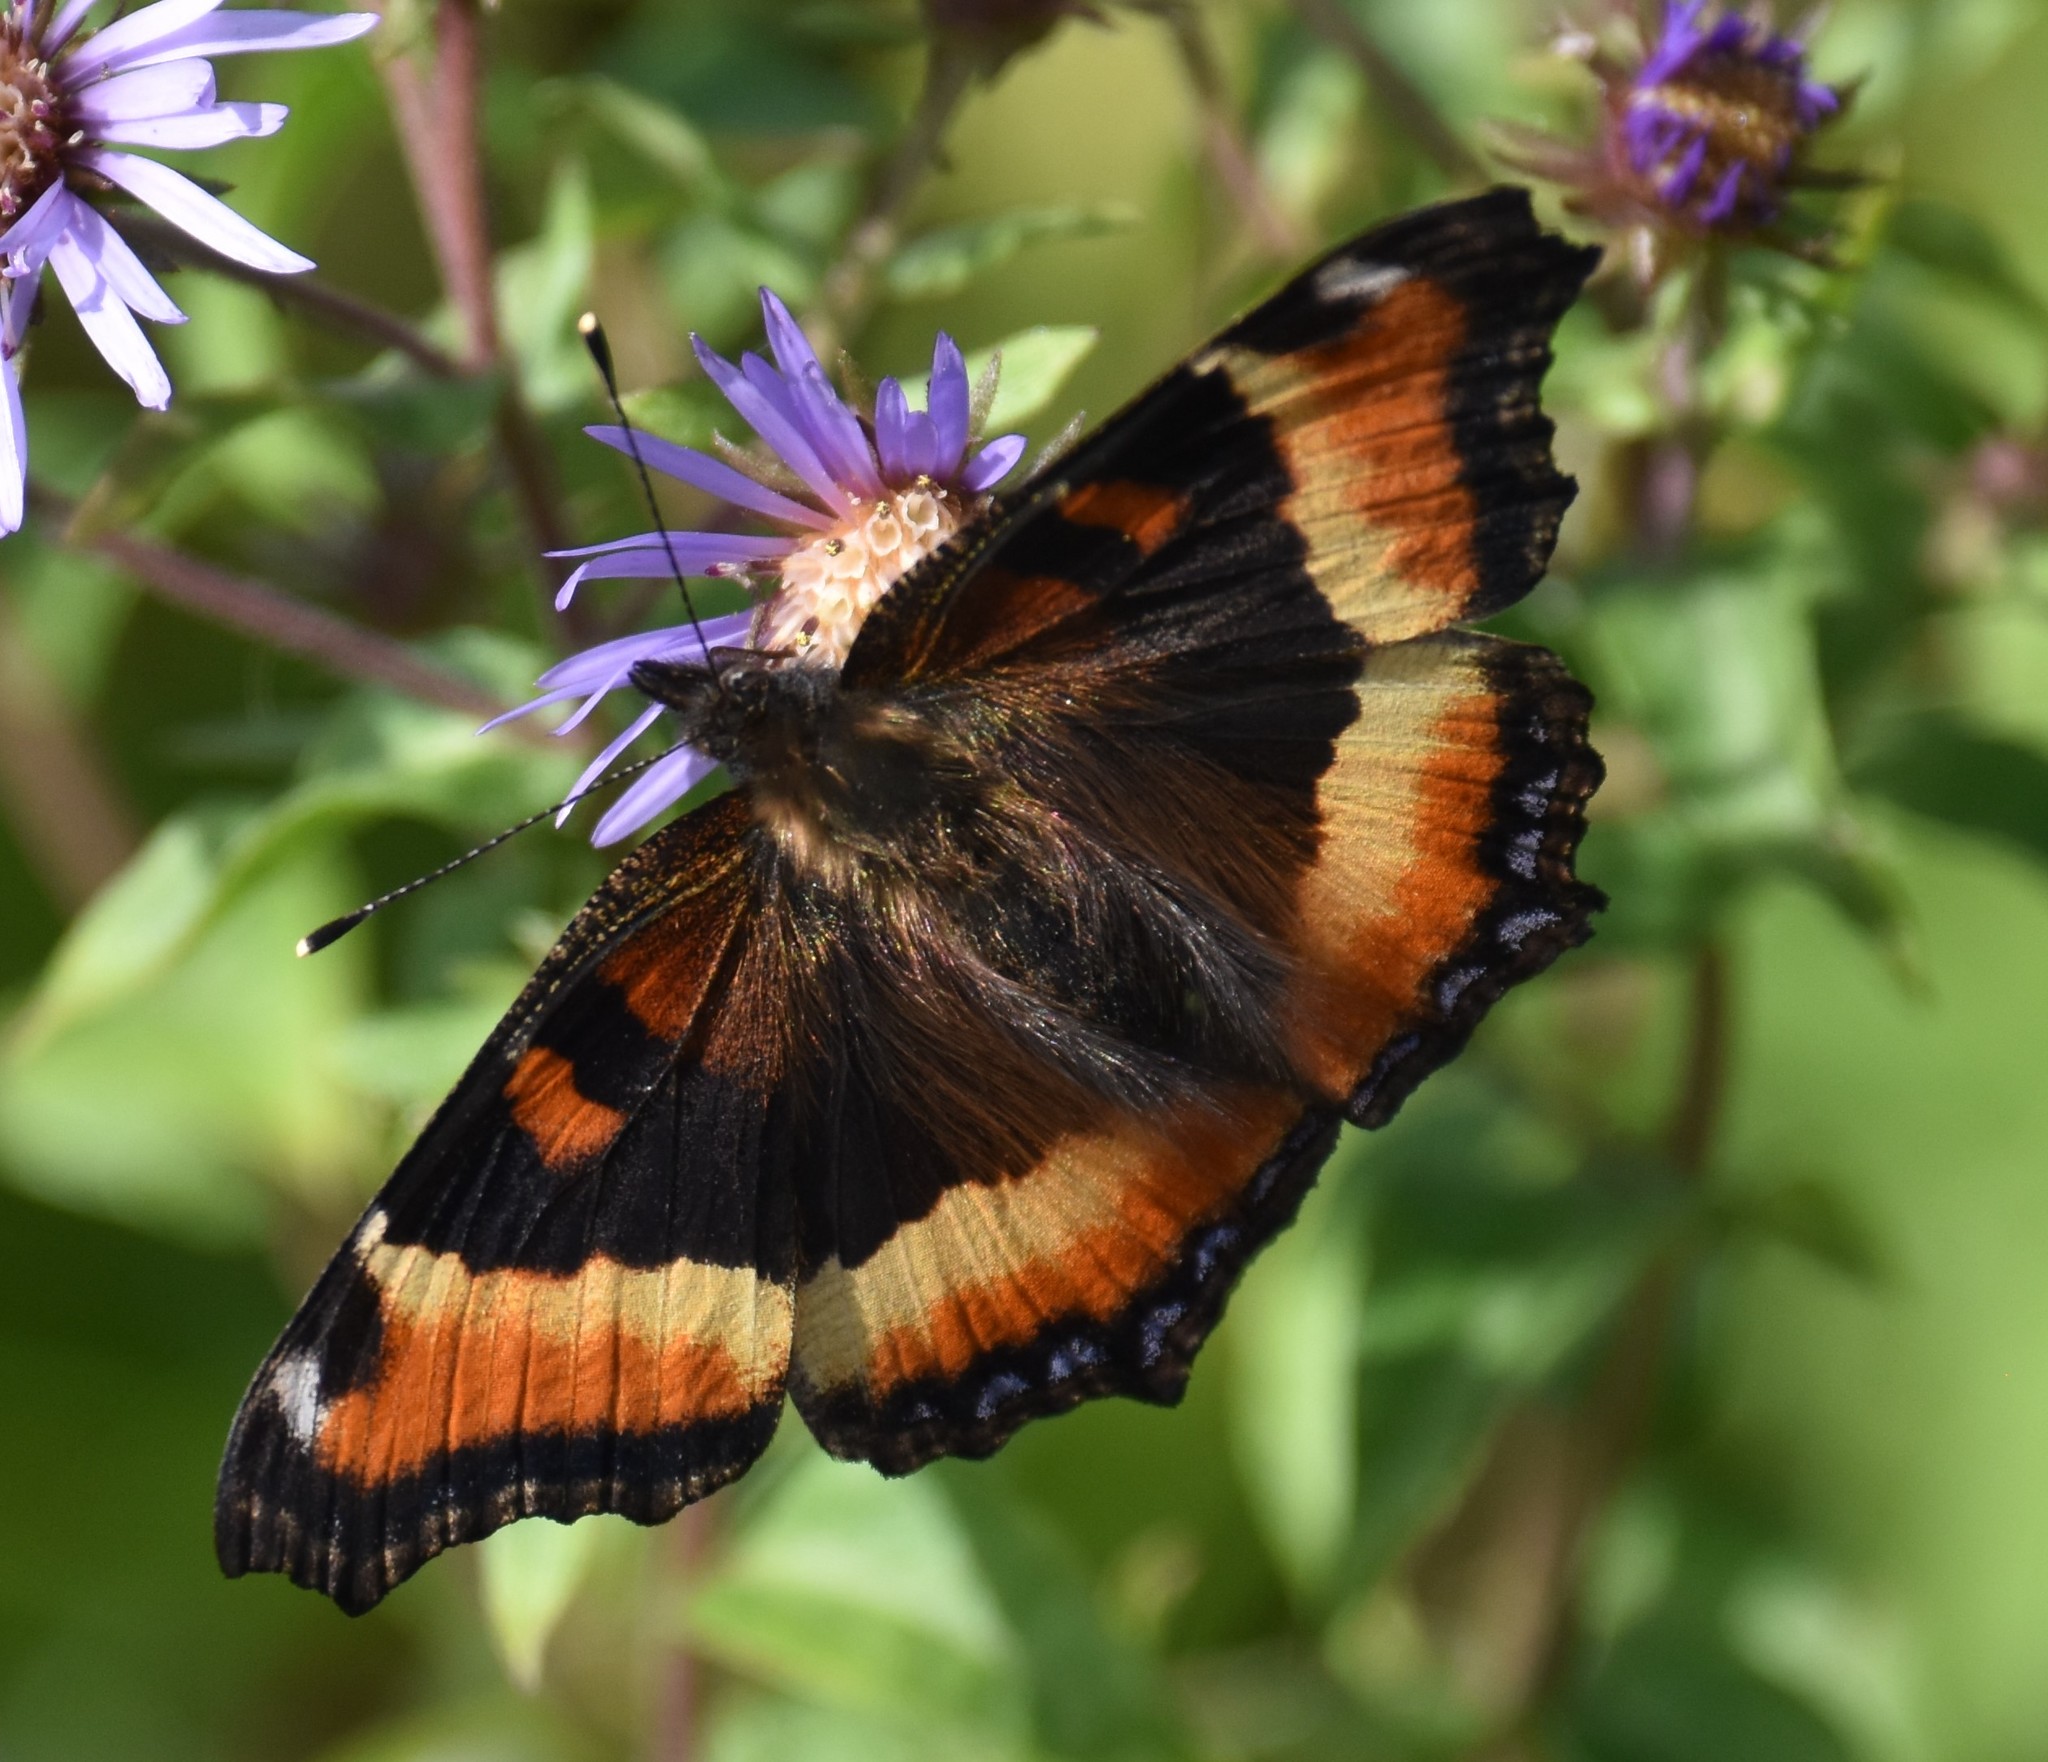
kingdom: Animalia
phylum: Arthropoda
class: Insecta
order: Lepidoptera
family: Nymphalidae
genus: Aglais
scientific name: Aglais milberti
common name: Milbert's tortoiseshell
